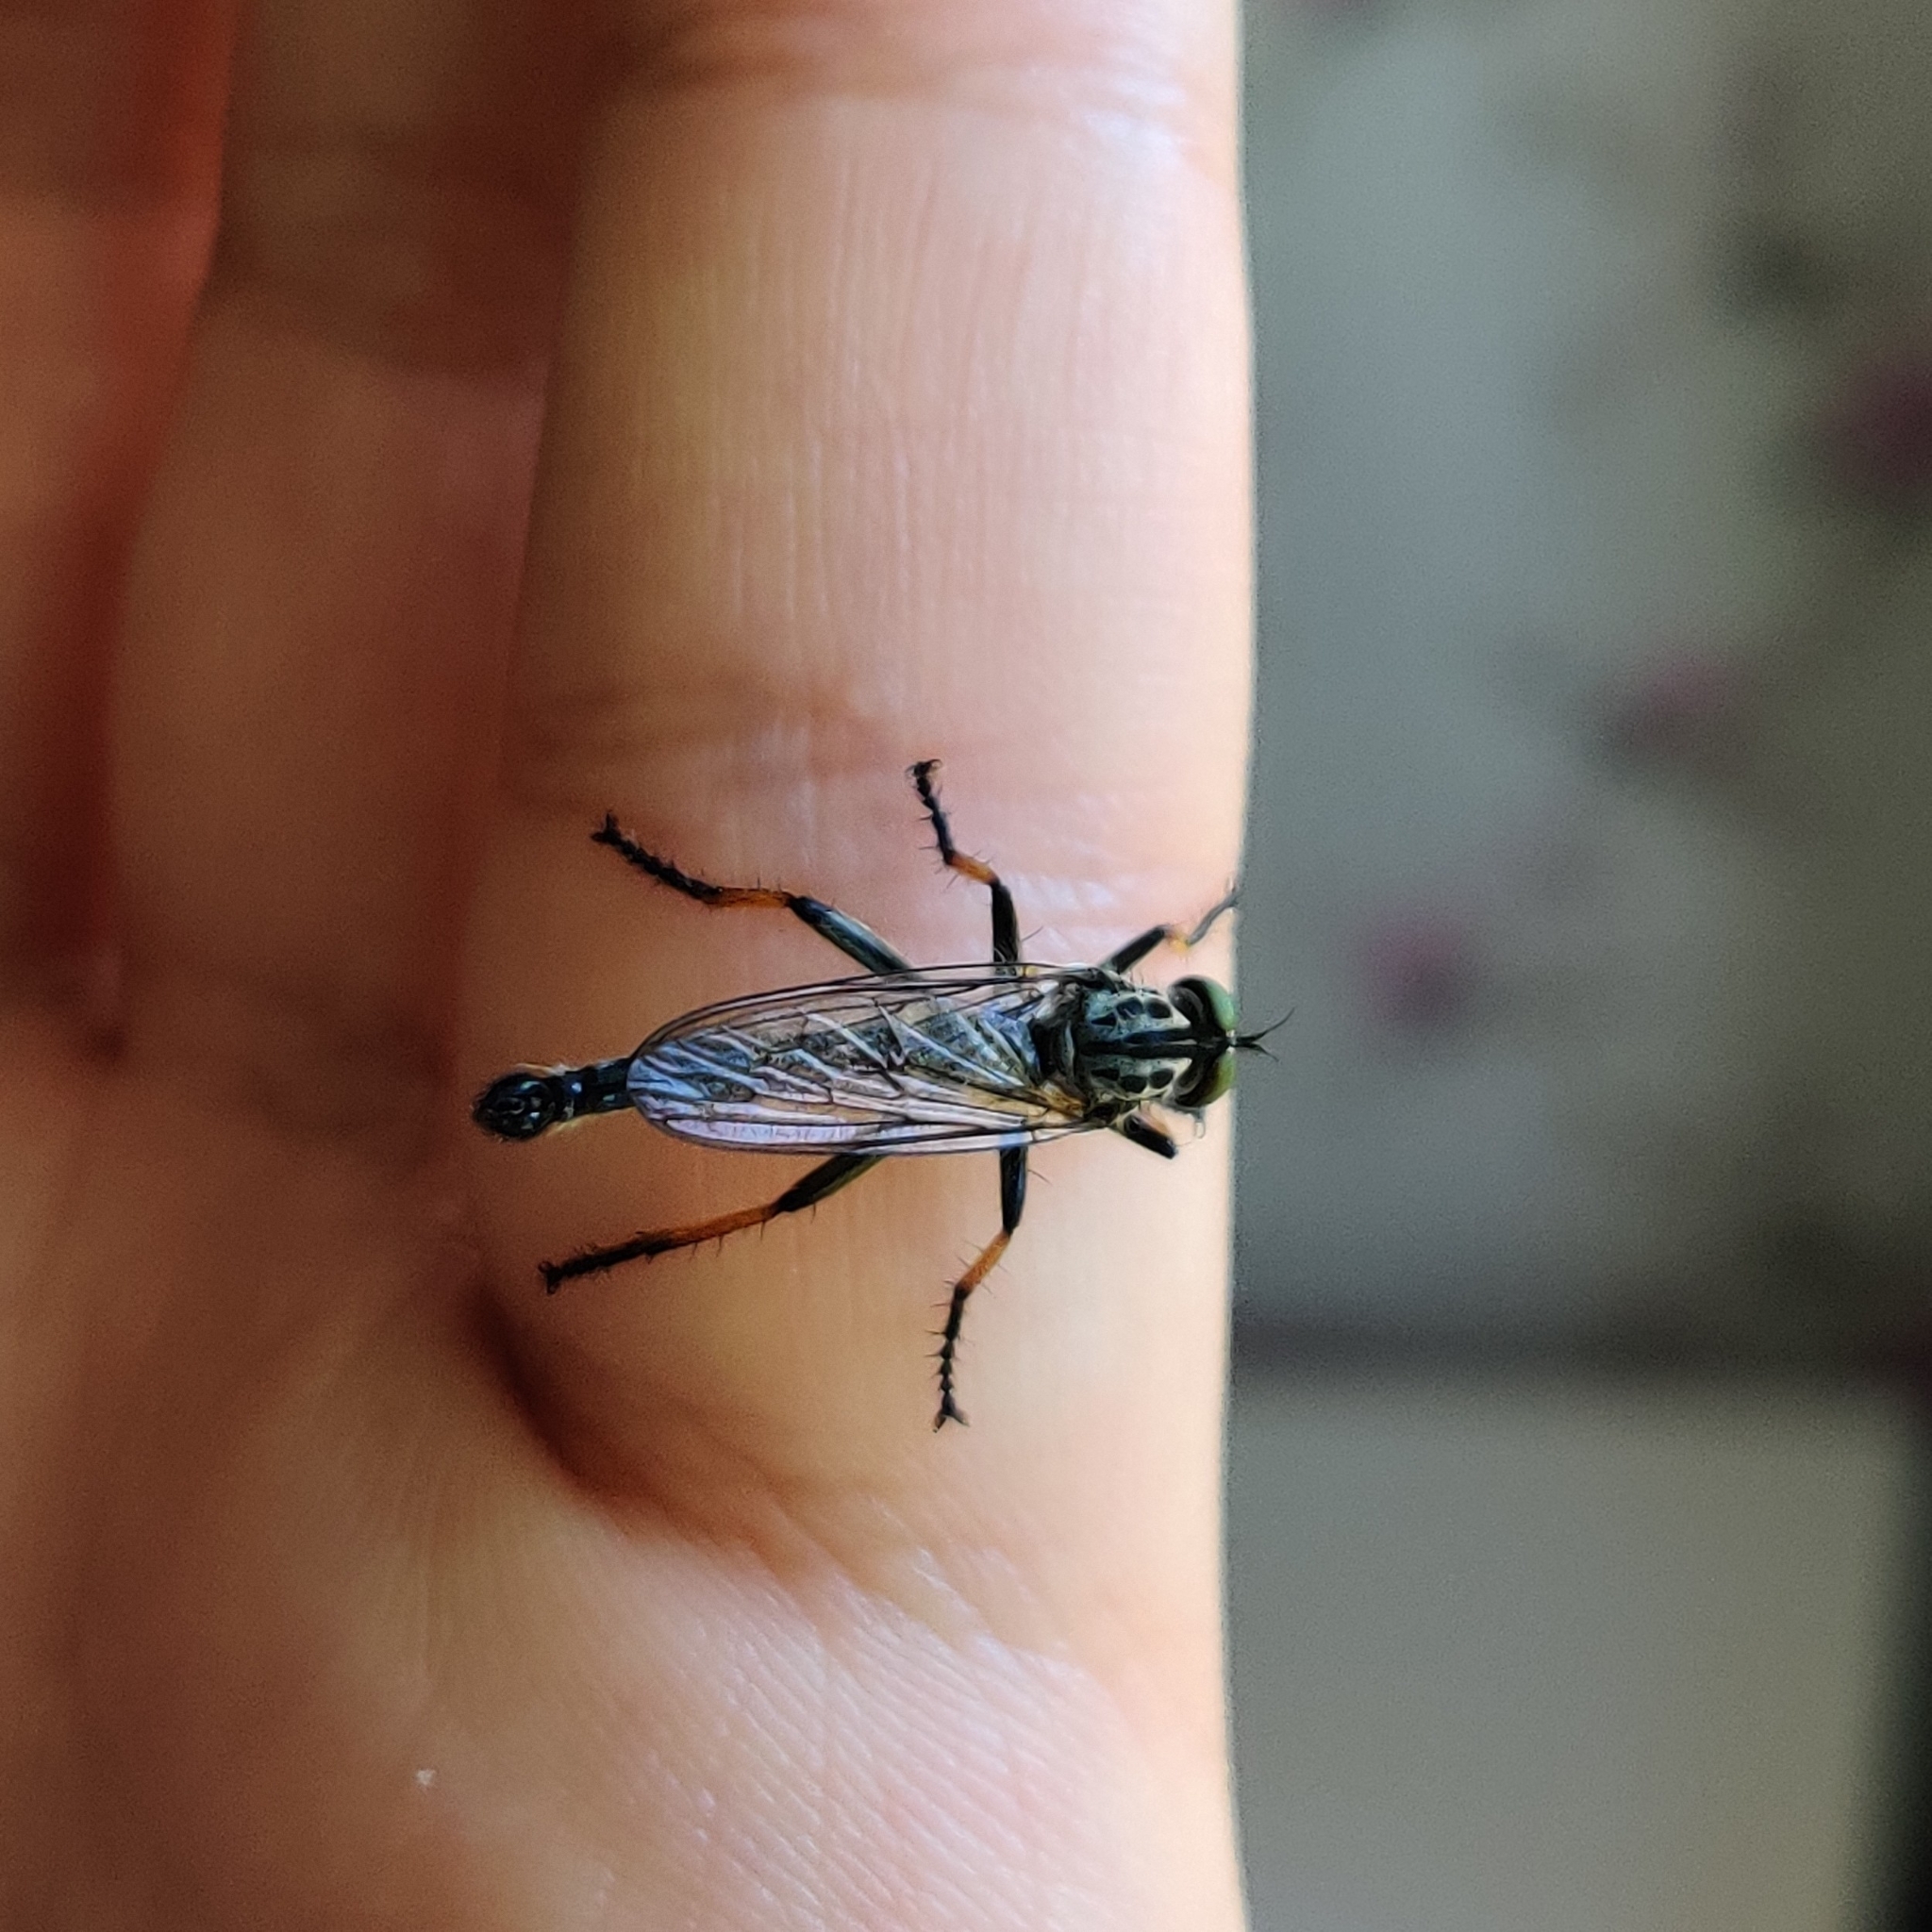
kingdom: Animalia
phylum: Arthropoda
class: Insecta
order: Diptera
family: Asilidae
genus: Neoitamus
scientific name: Neoitamus
